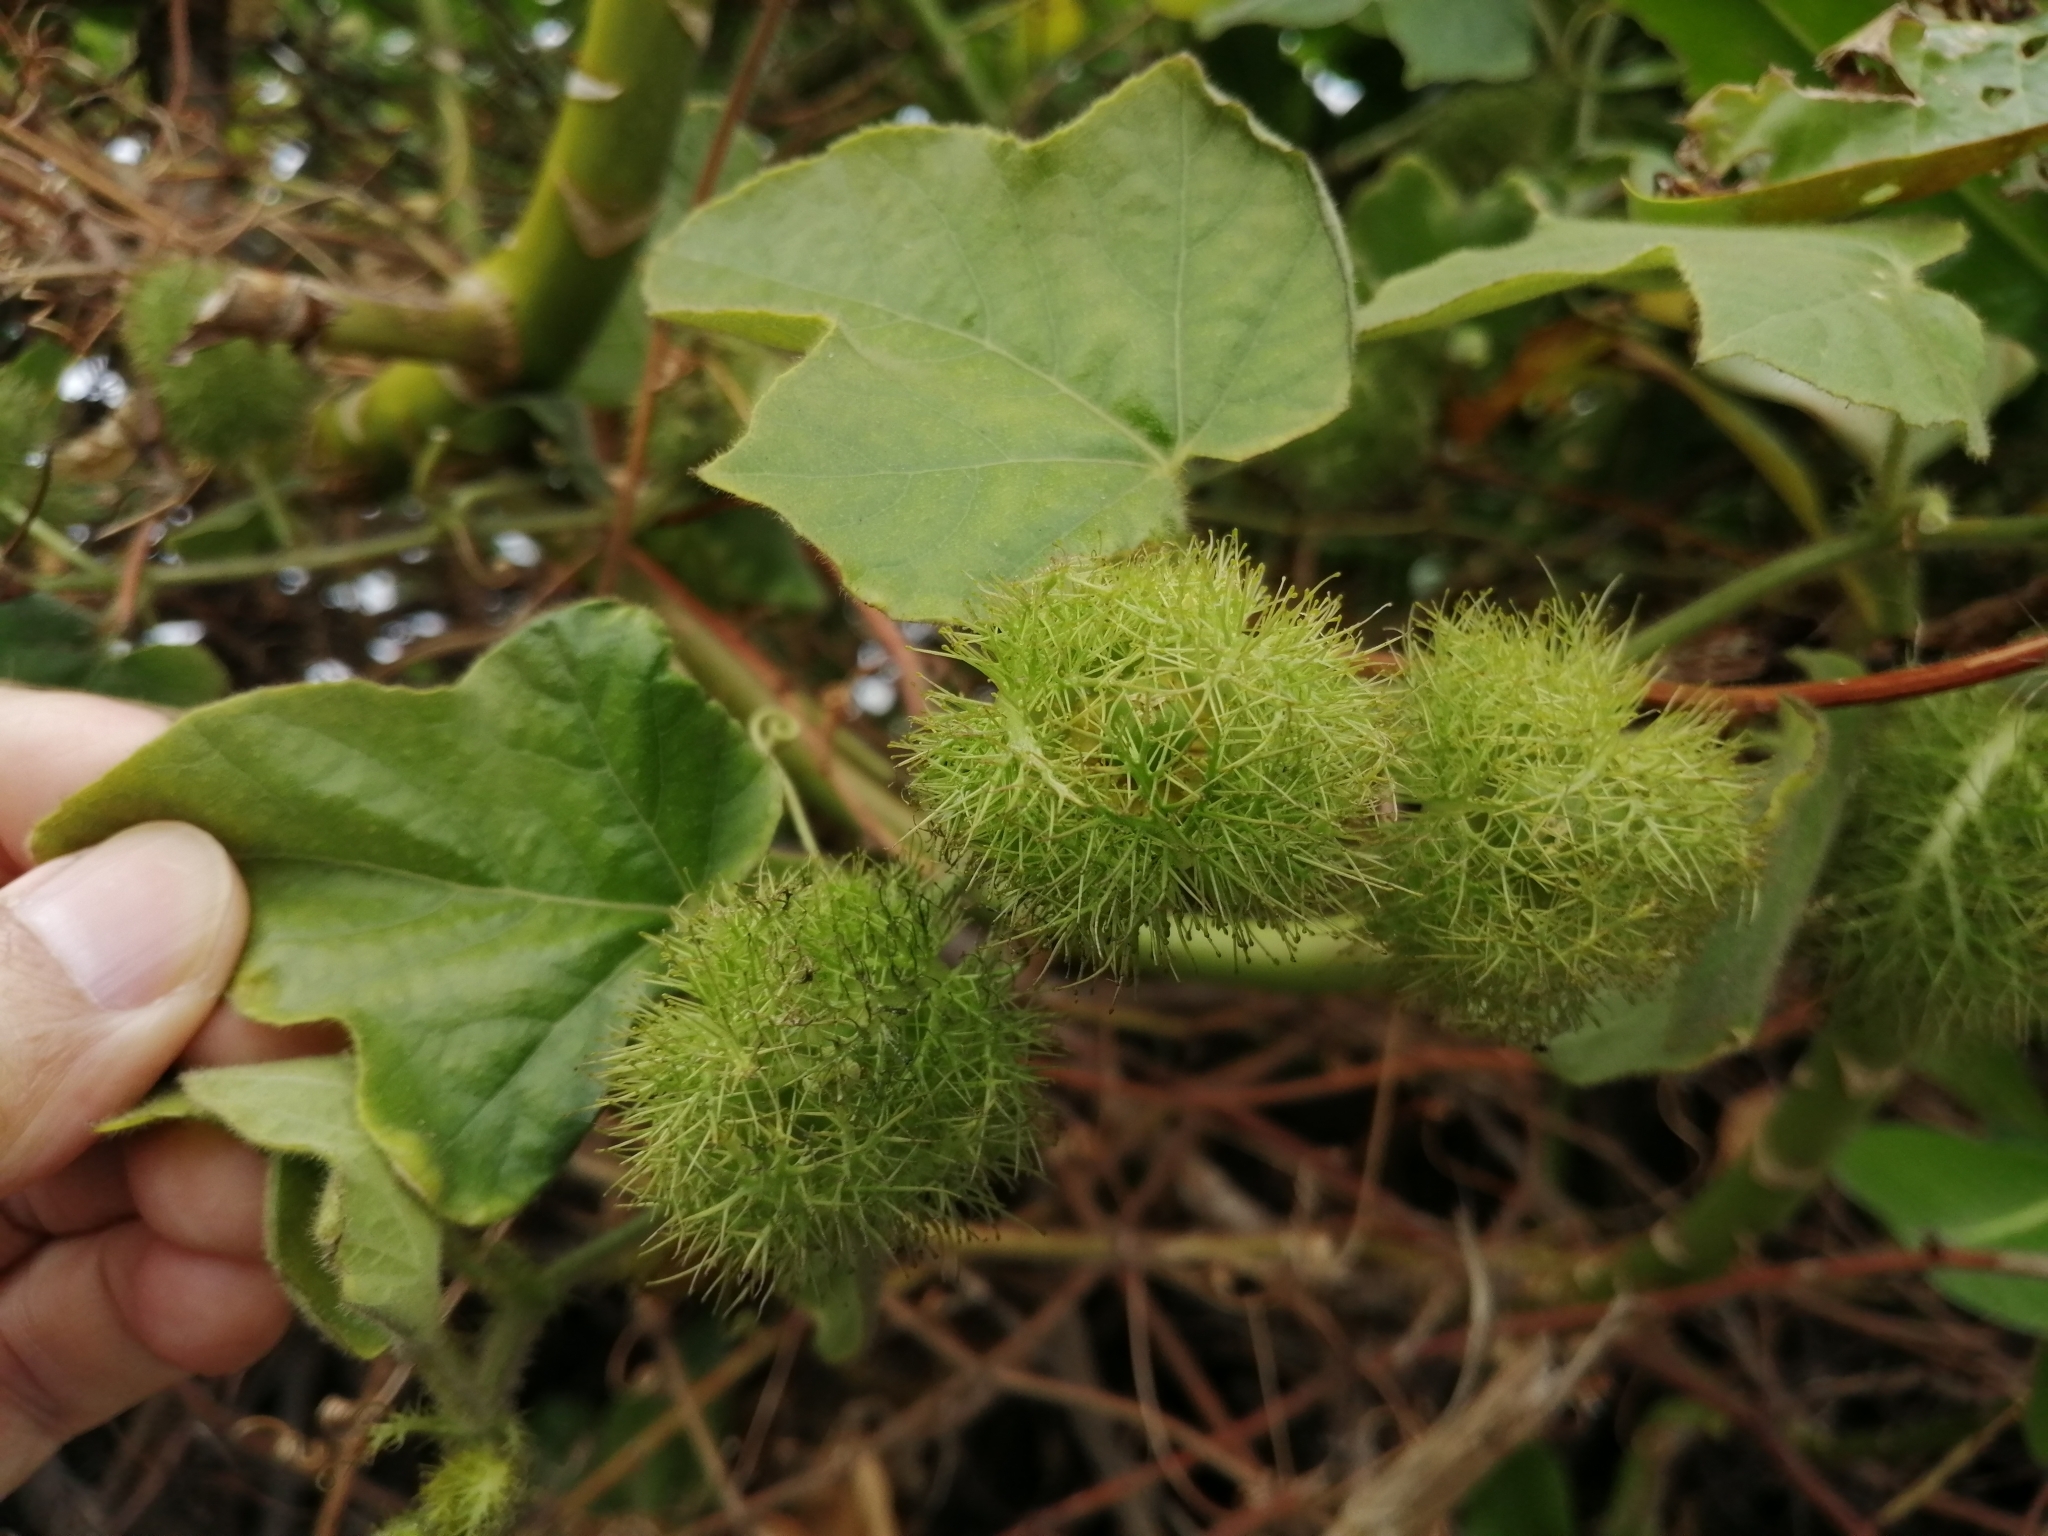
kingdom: Plantae
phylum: Tracheophyta
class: Magnoliopsida
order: Malpighiales
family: Passifloraceae
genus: Passiflora
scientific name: Passiflora vesicaria
